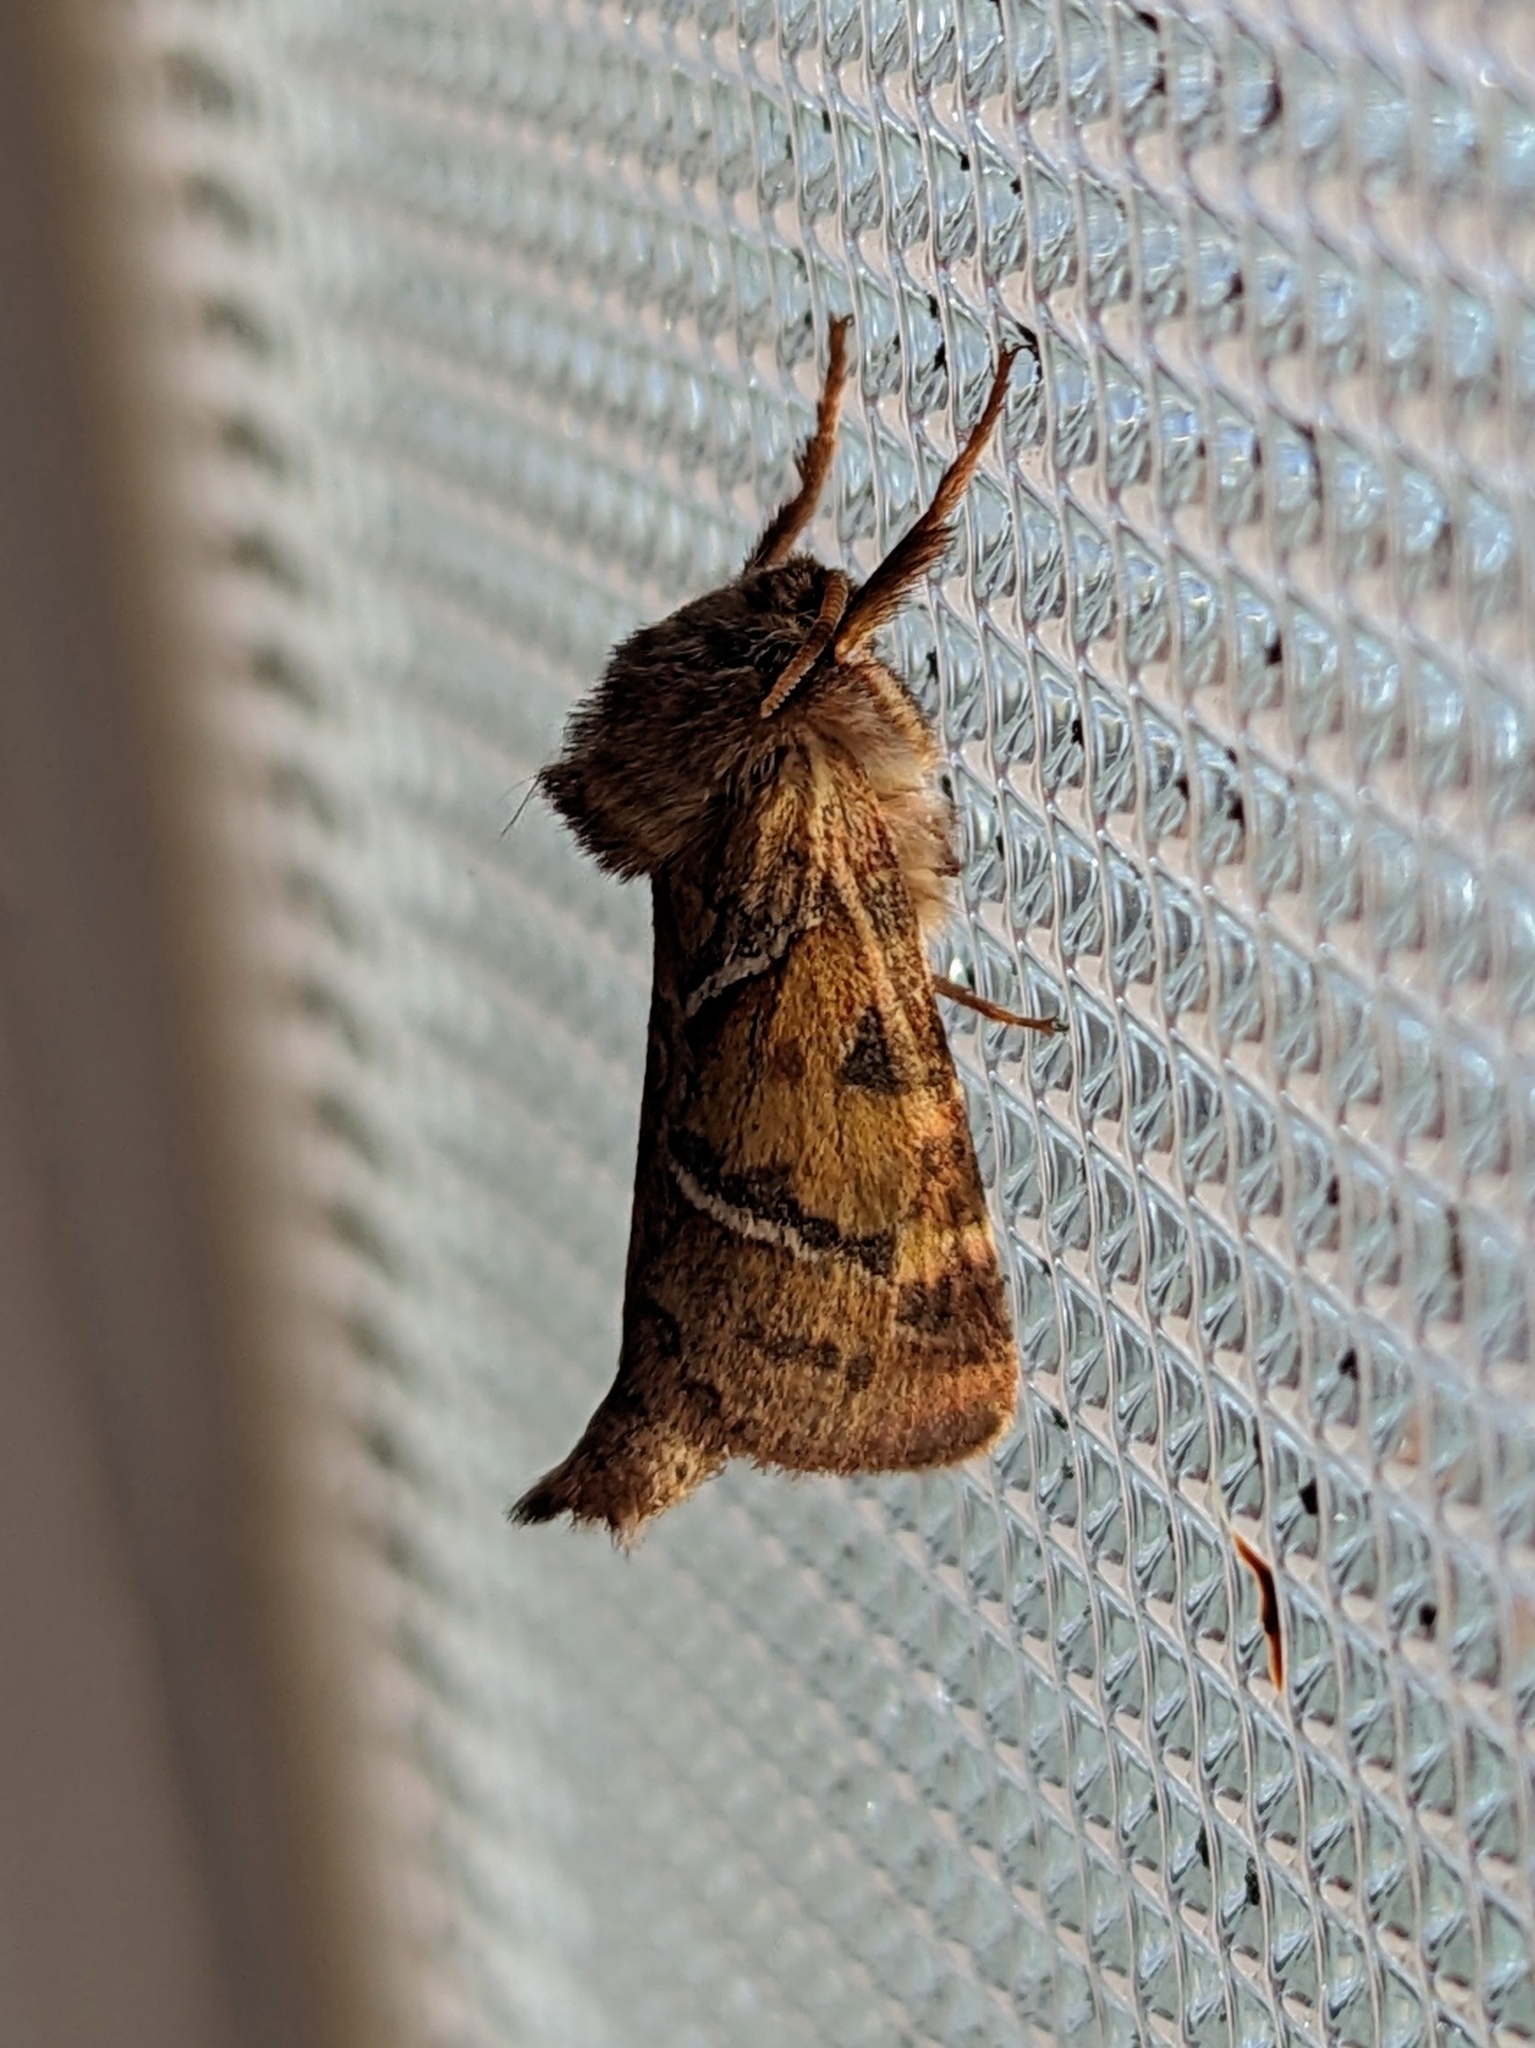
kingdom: Animalia
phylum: Arthropoda
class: Insecta
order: Lepidoptera
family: Hepialidae
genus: Triodia
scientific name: Triodia sylvina
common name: Orange swift
